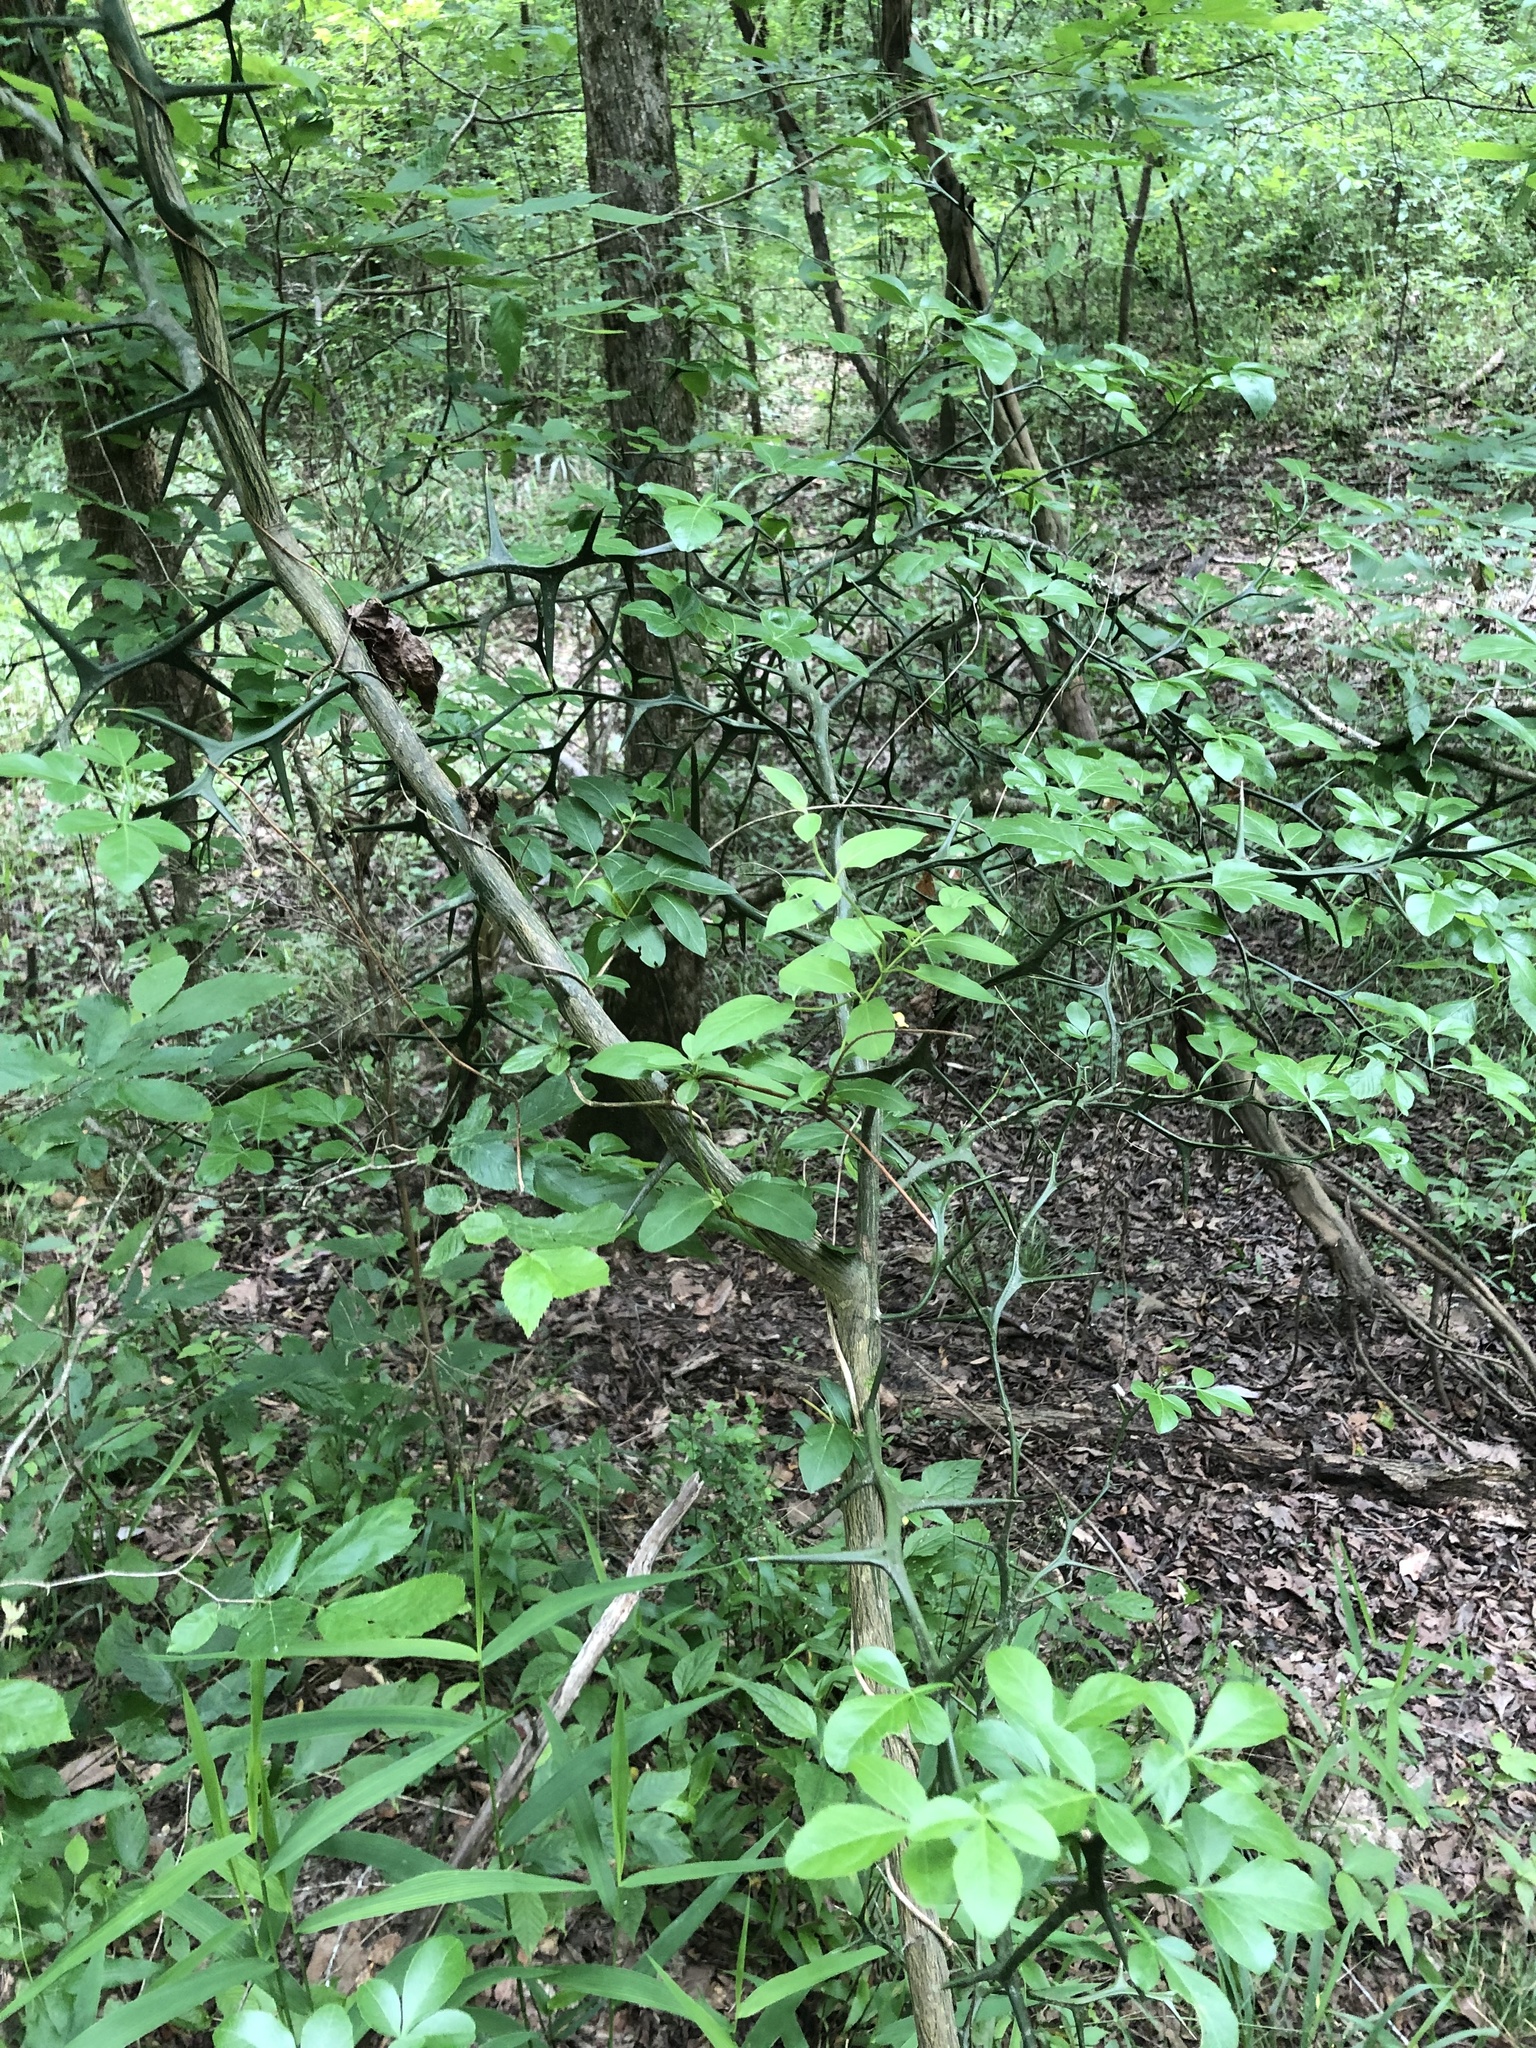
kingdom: Plantae
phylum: Tracheophyta
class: Magnoliopsida
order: Sapindales
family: Rutaceae
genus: Citrus
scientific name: Citrus trifoliata
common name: Japanese bitter-orange
